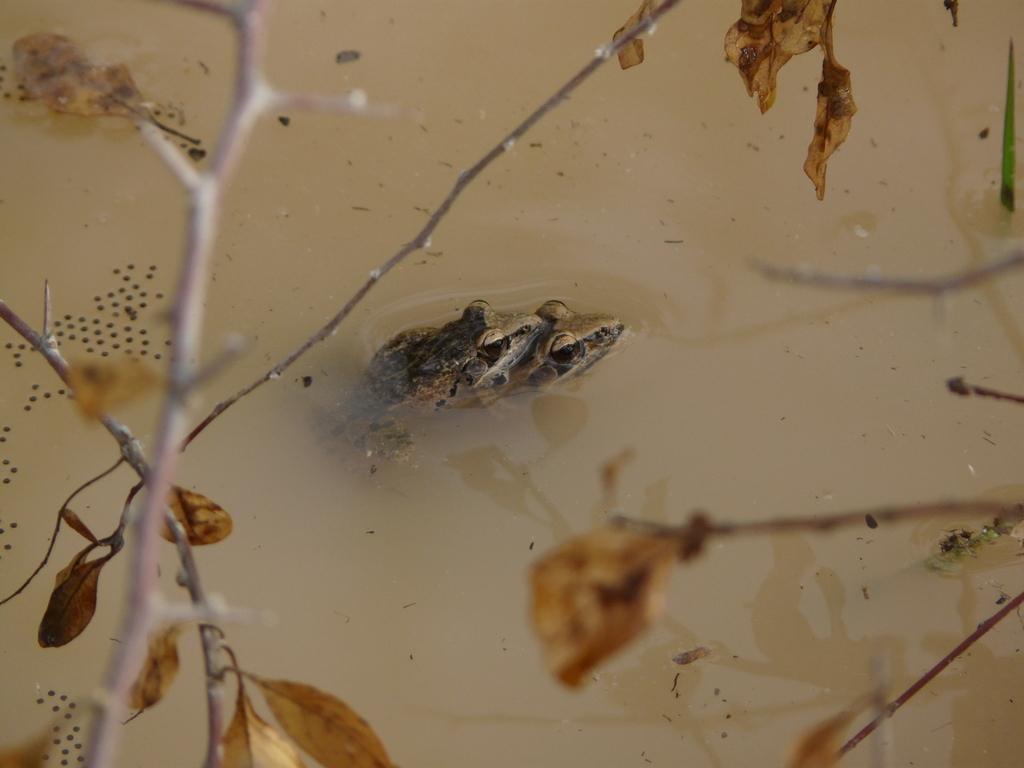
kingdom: Animalia
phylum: Chordata
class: Amphibia
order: Anura
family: Ptychadenidae
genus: Ptychadena
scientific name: Ptychadena anchietae
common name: Anchieta's ridged frog
